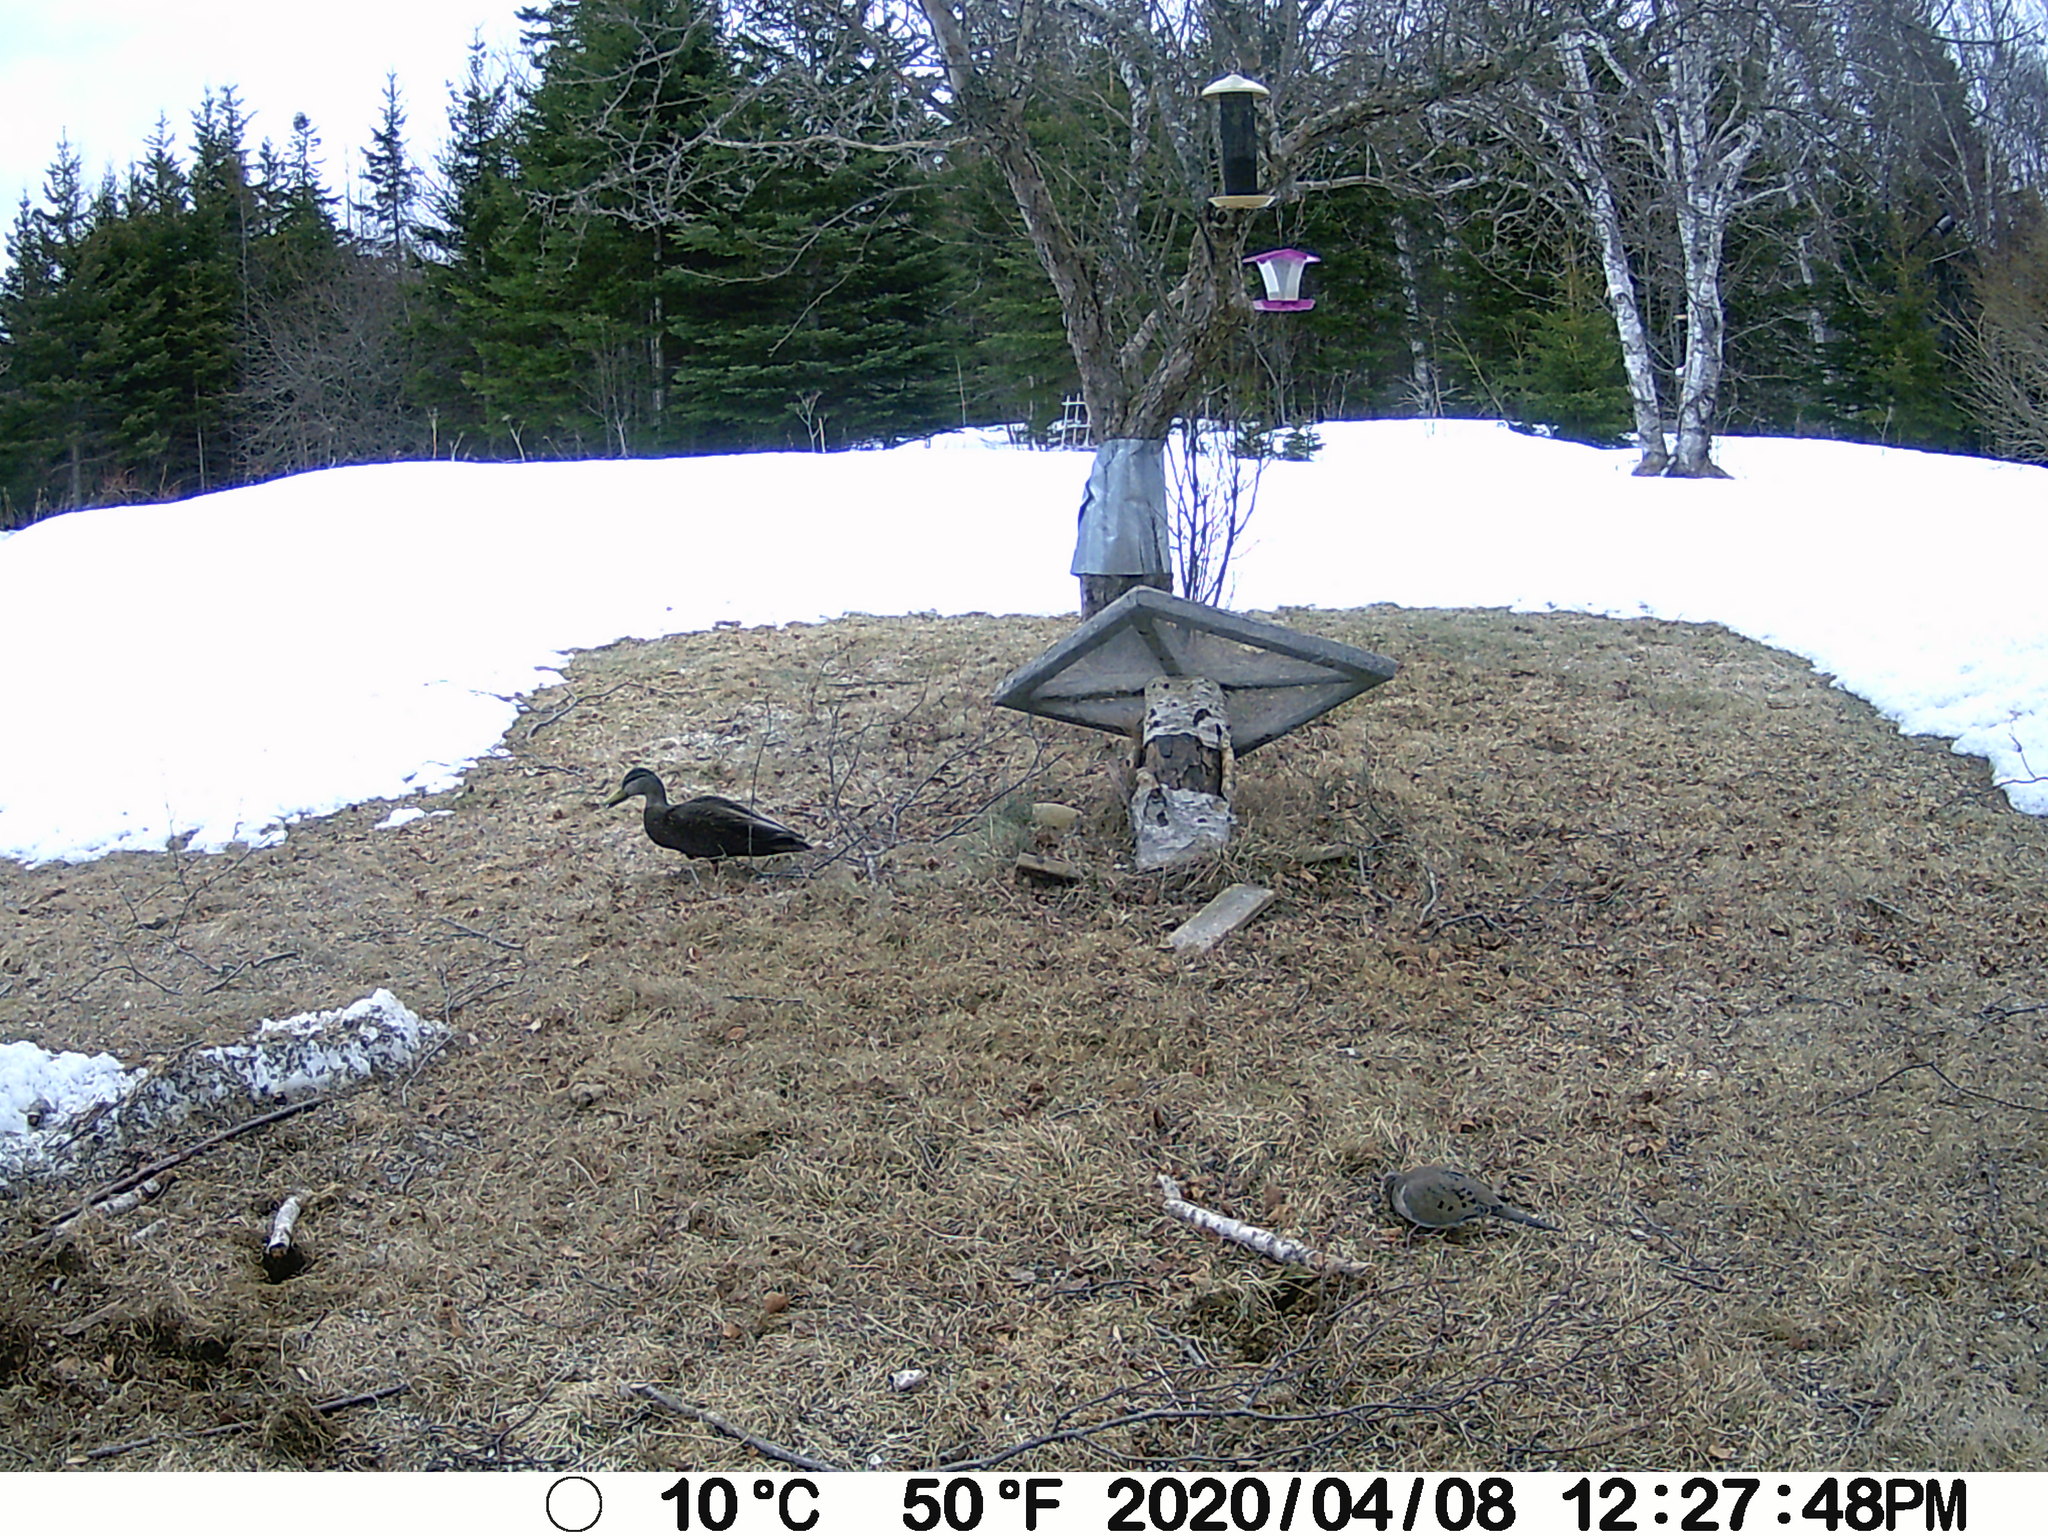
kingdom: Animalia
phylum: Chordata
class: Aves
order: Columbiformes
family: Columbidae
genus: Zenaida
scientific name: Zenaida macroura
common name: Mourning dove
